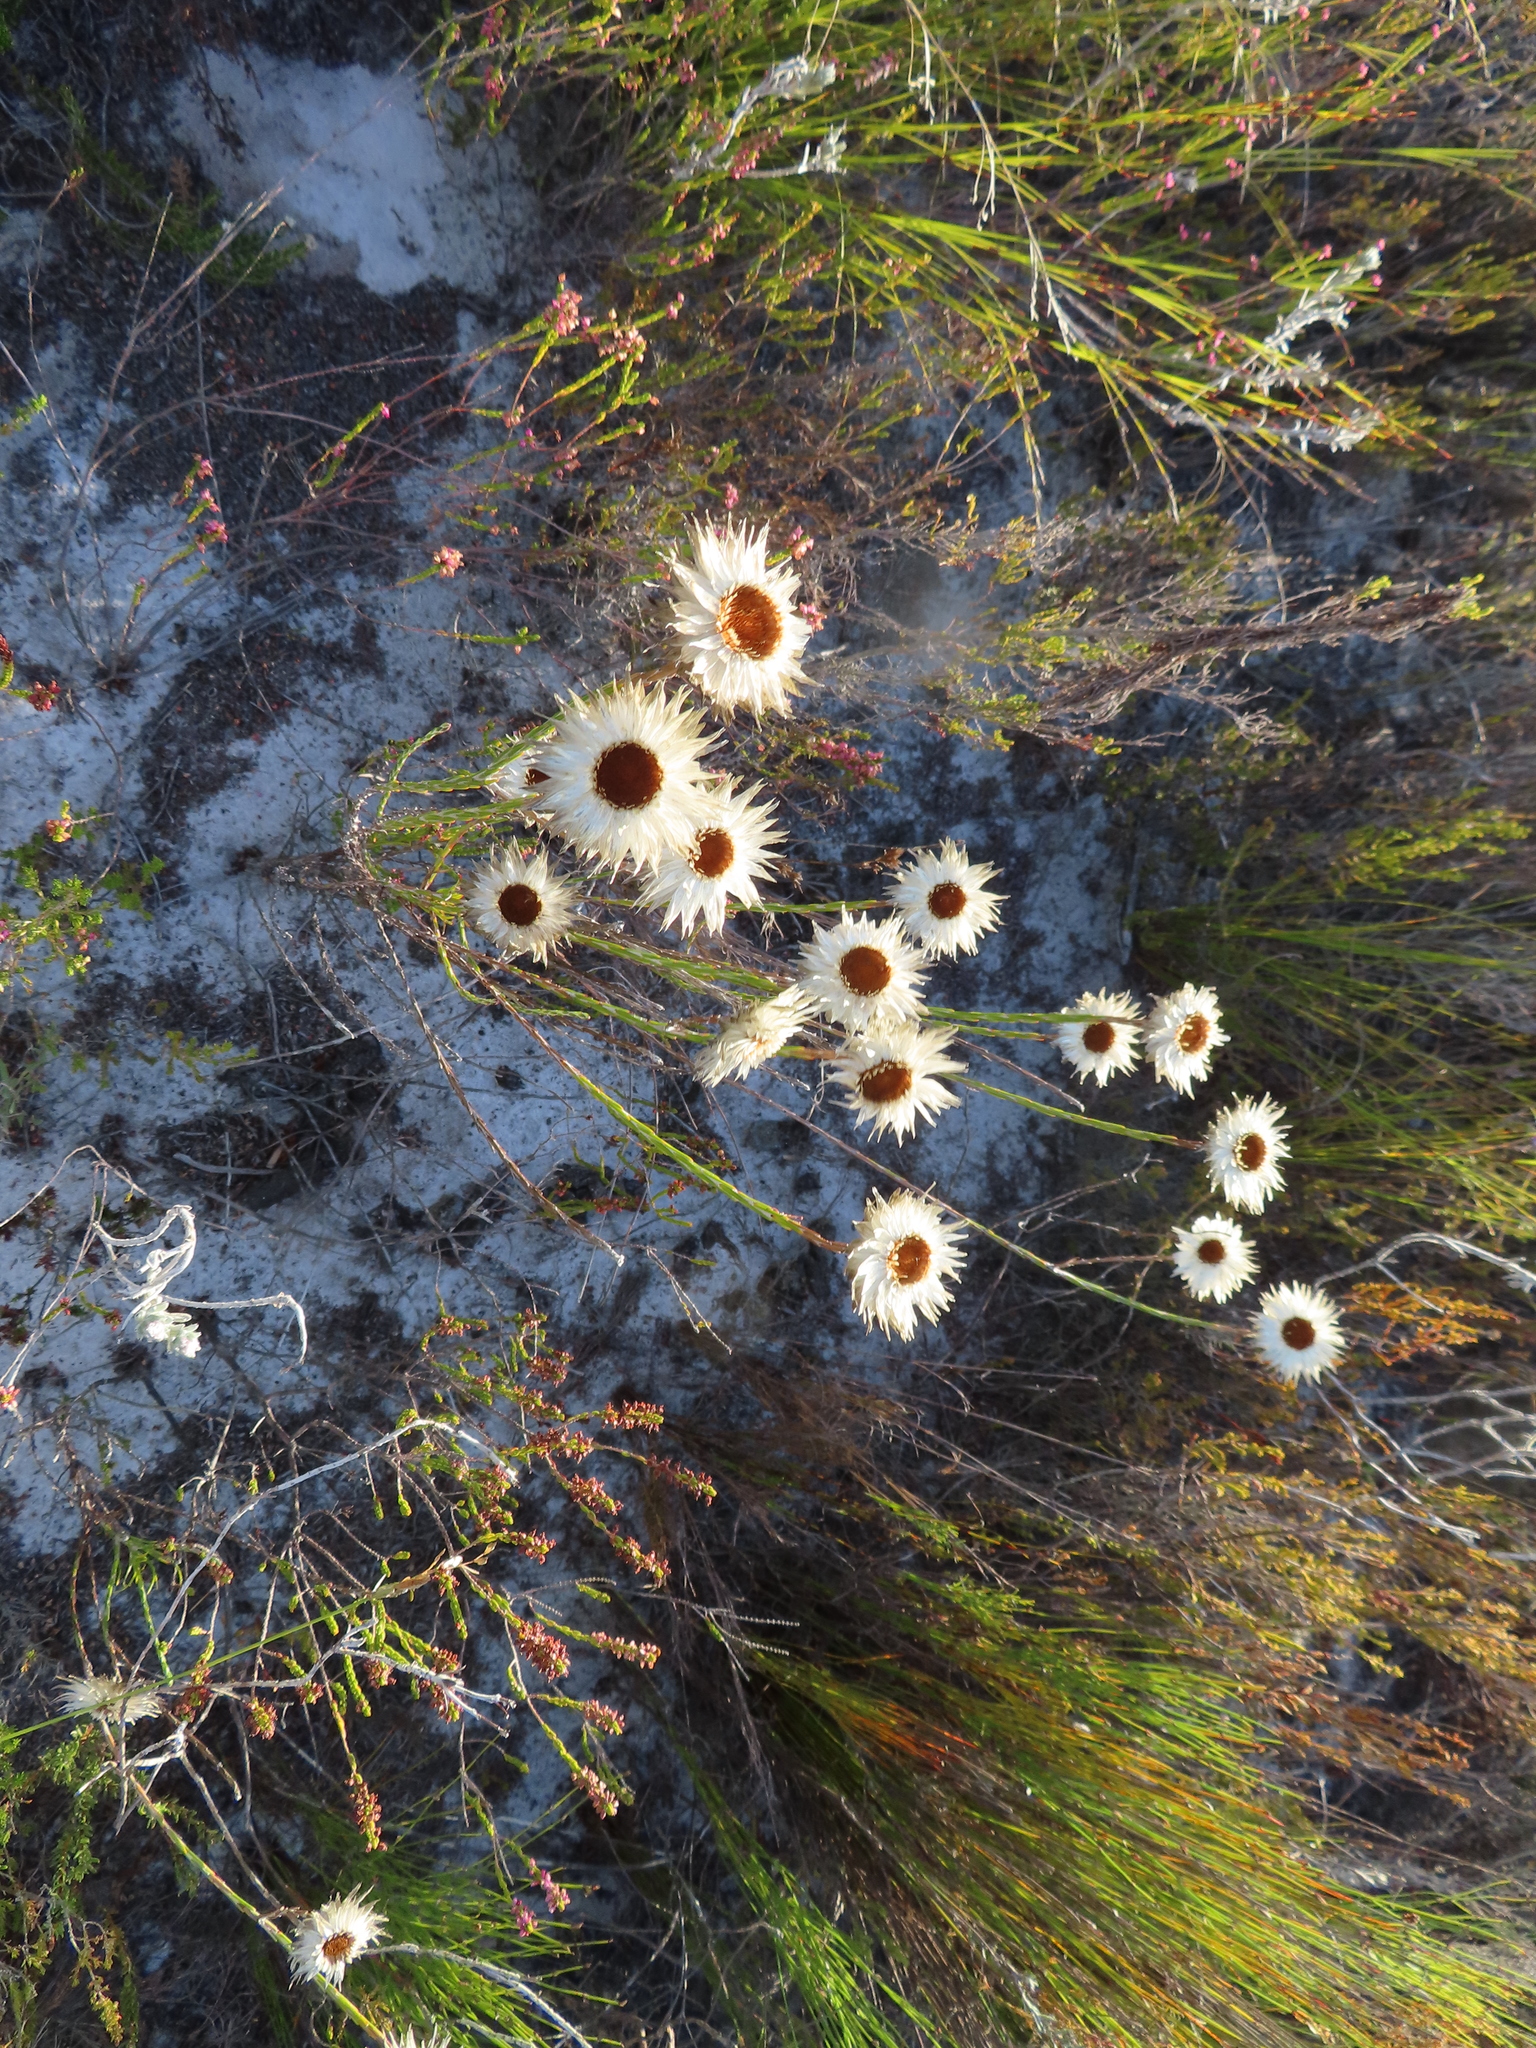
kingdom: Plantae
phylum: Tracheophyta
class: Magnoliopsida
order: Asterales
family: Asteraceae
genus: Edmondia
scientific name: Edmondia sesamoides
